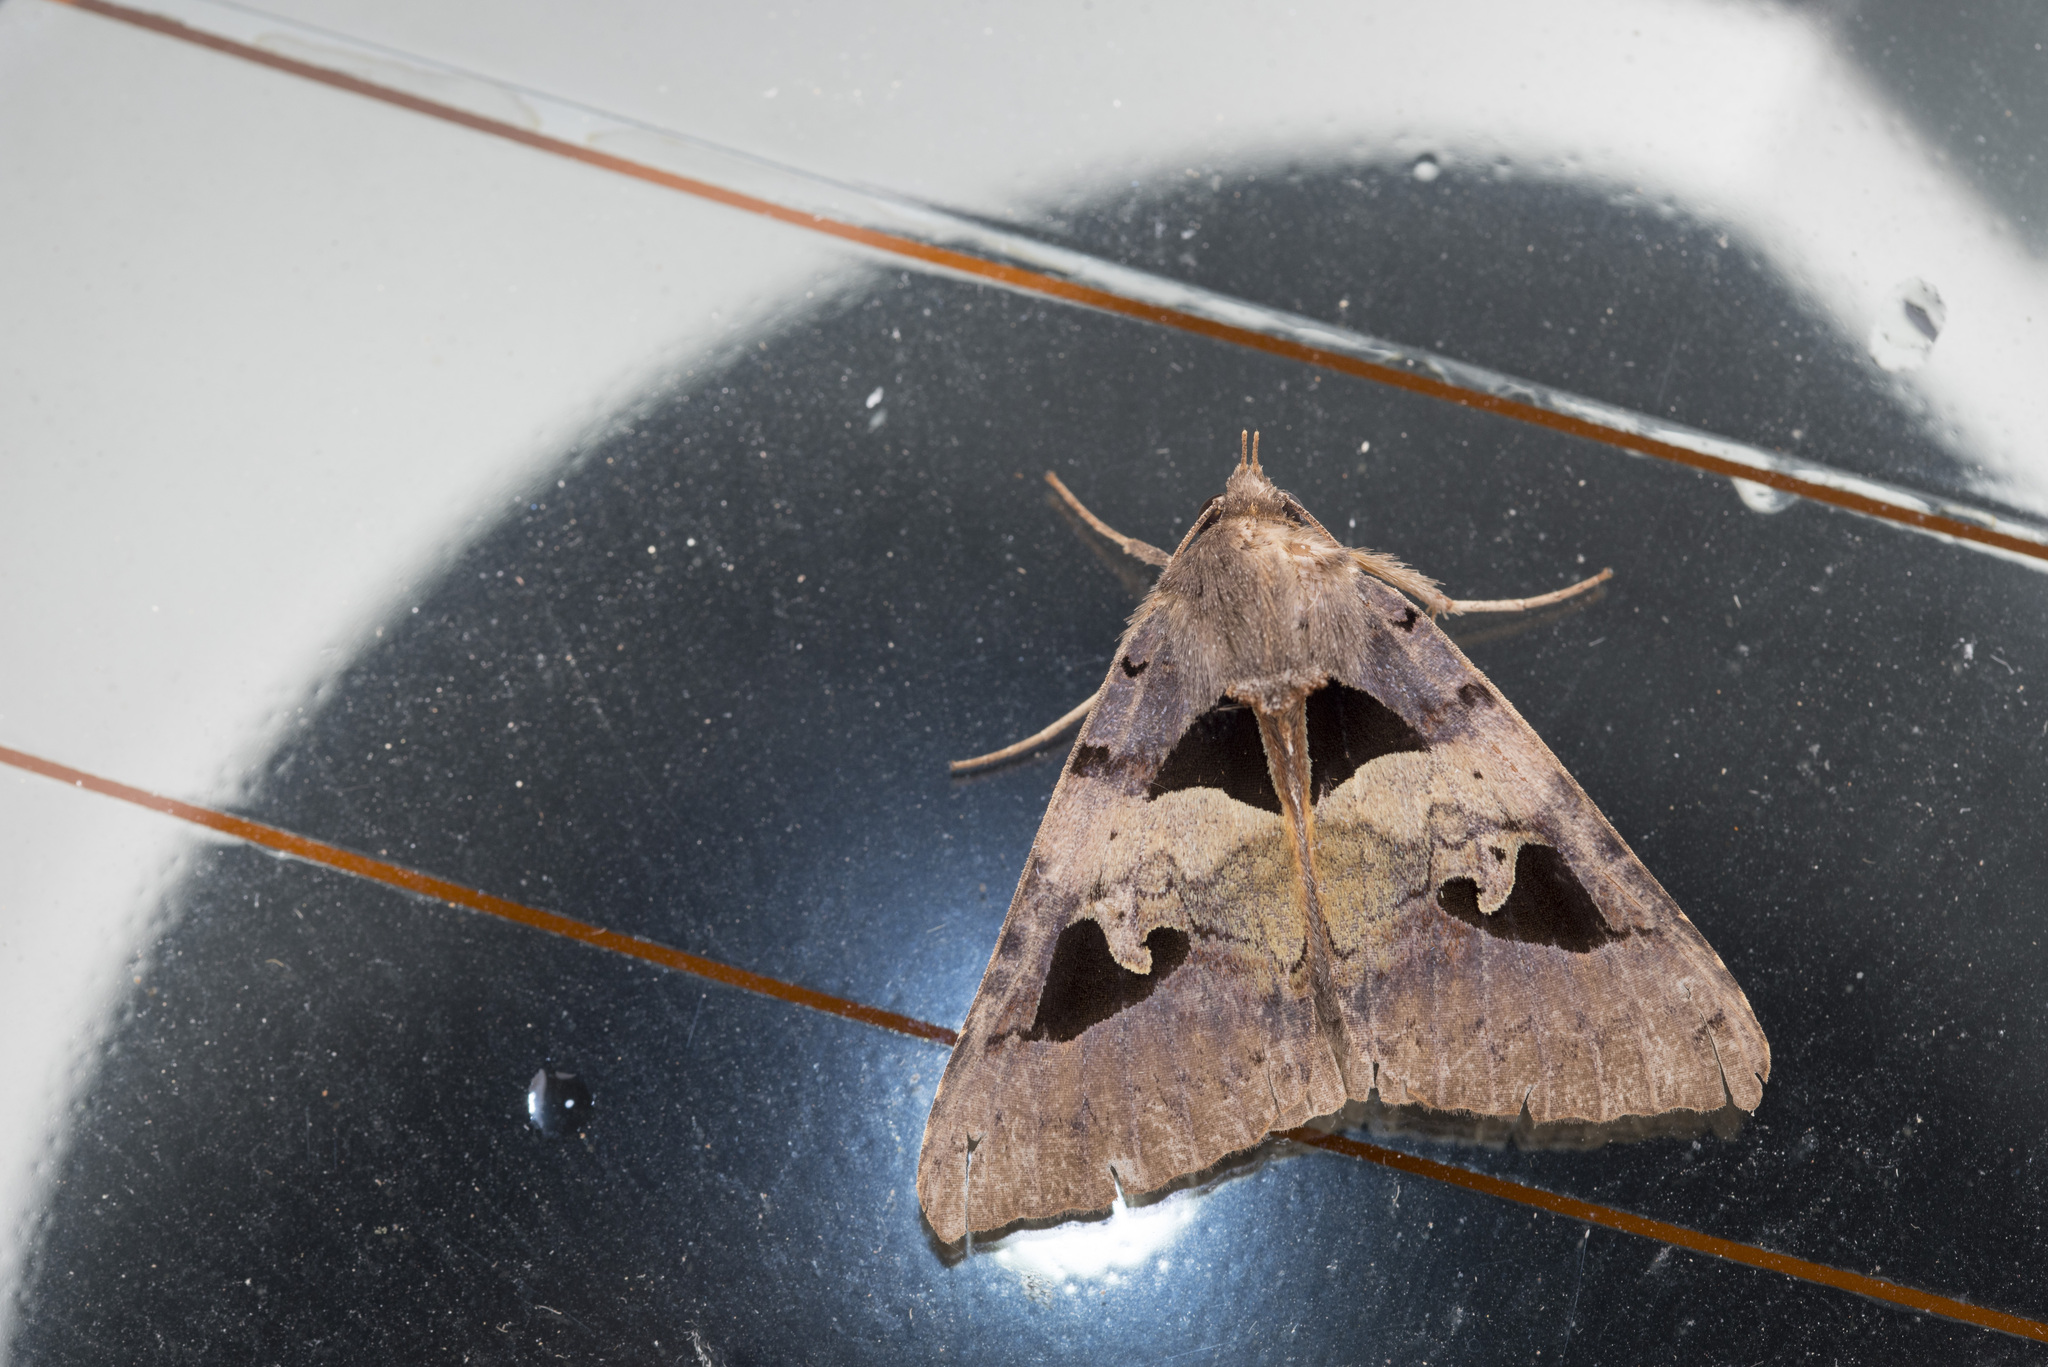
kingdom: Animalia
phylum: Arthropoda
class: Insecta
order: Lepidoptera
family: Erebidae
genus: Avatha
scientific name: Avatha chinensis
